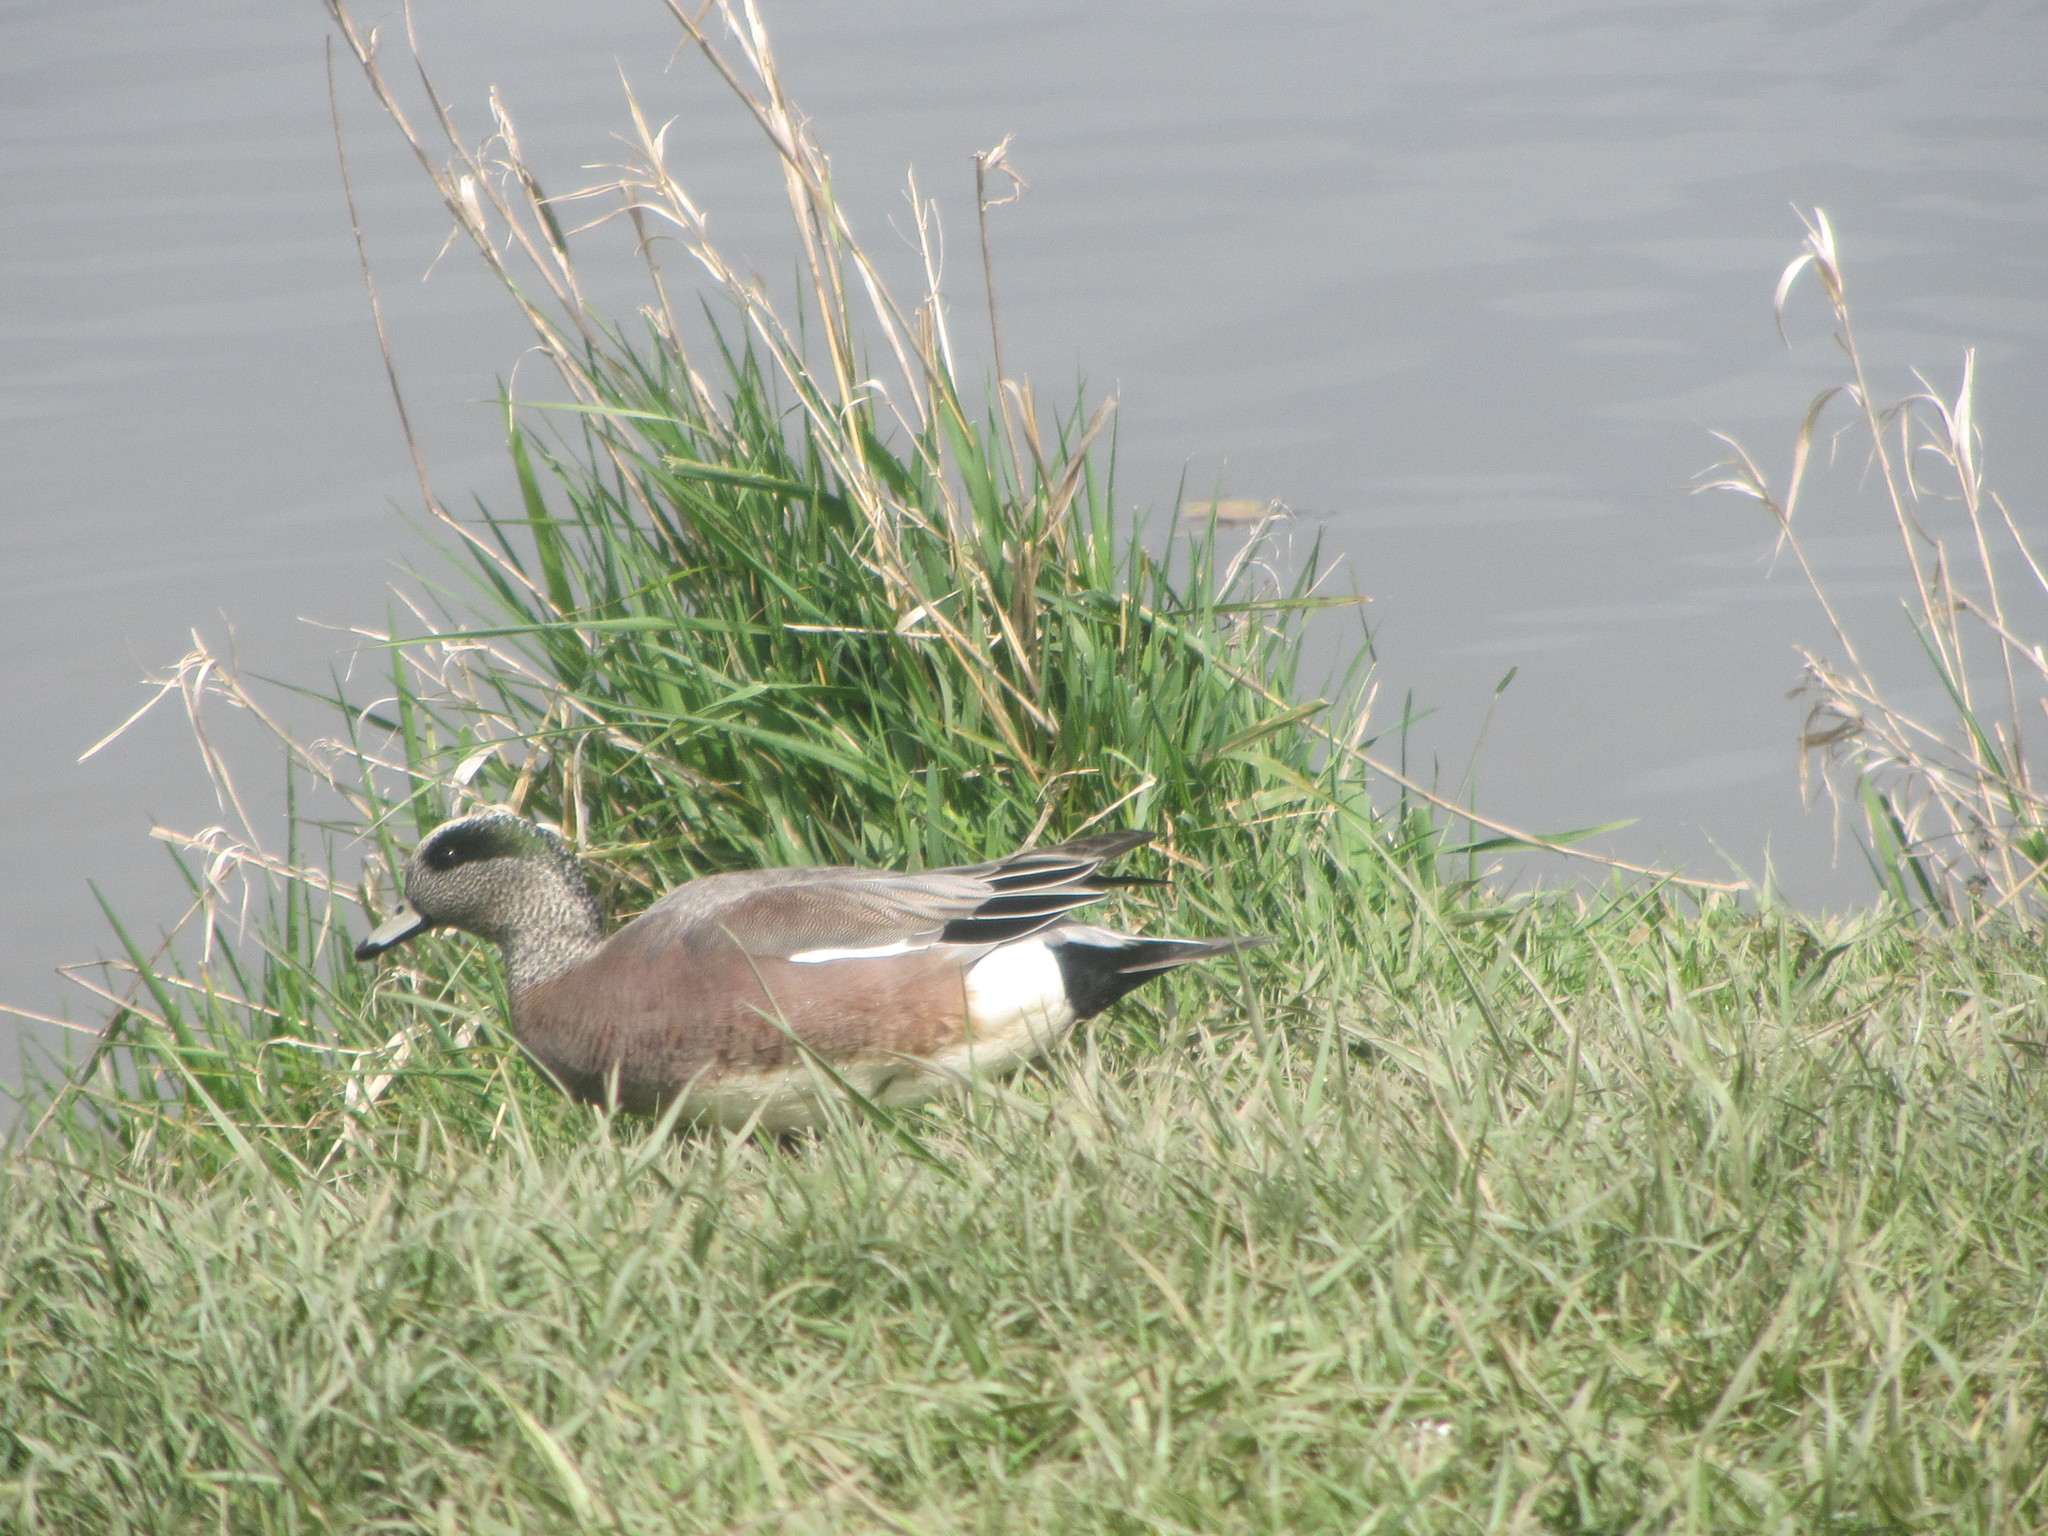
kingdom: Animalia
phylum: Chordata
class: Aves
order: Anseriformes
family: Anatidae
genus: Mareca
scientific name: Mareca americana
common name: American wigeon
